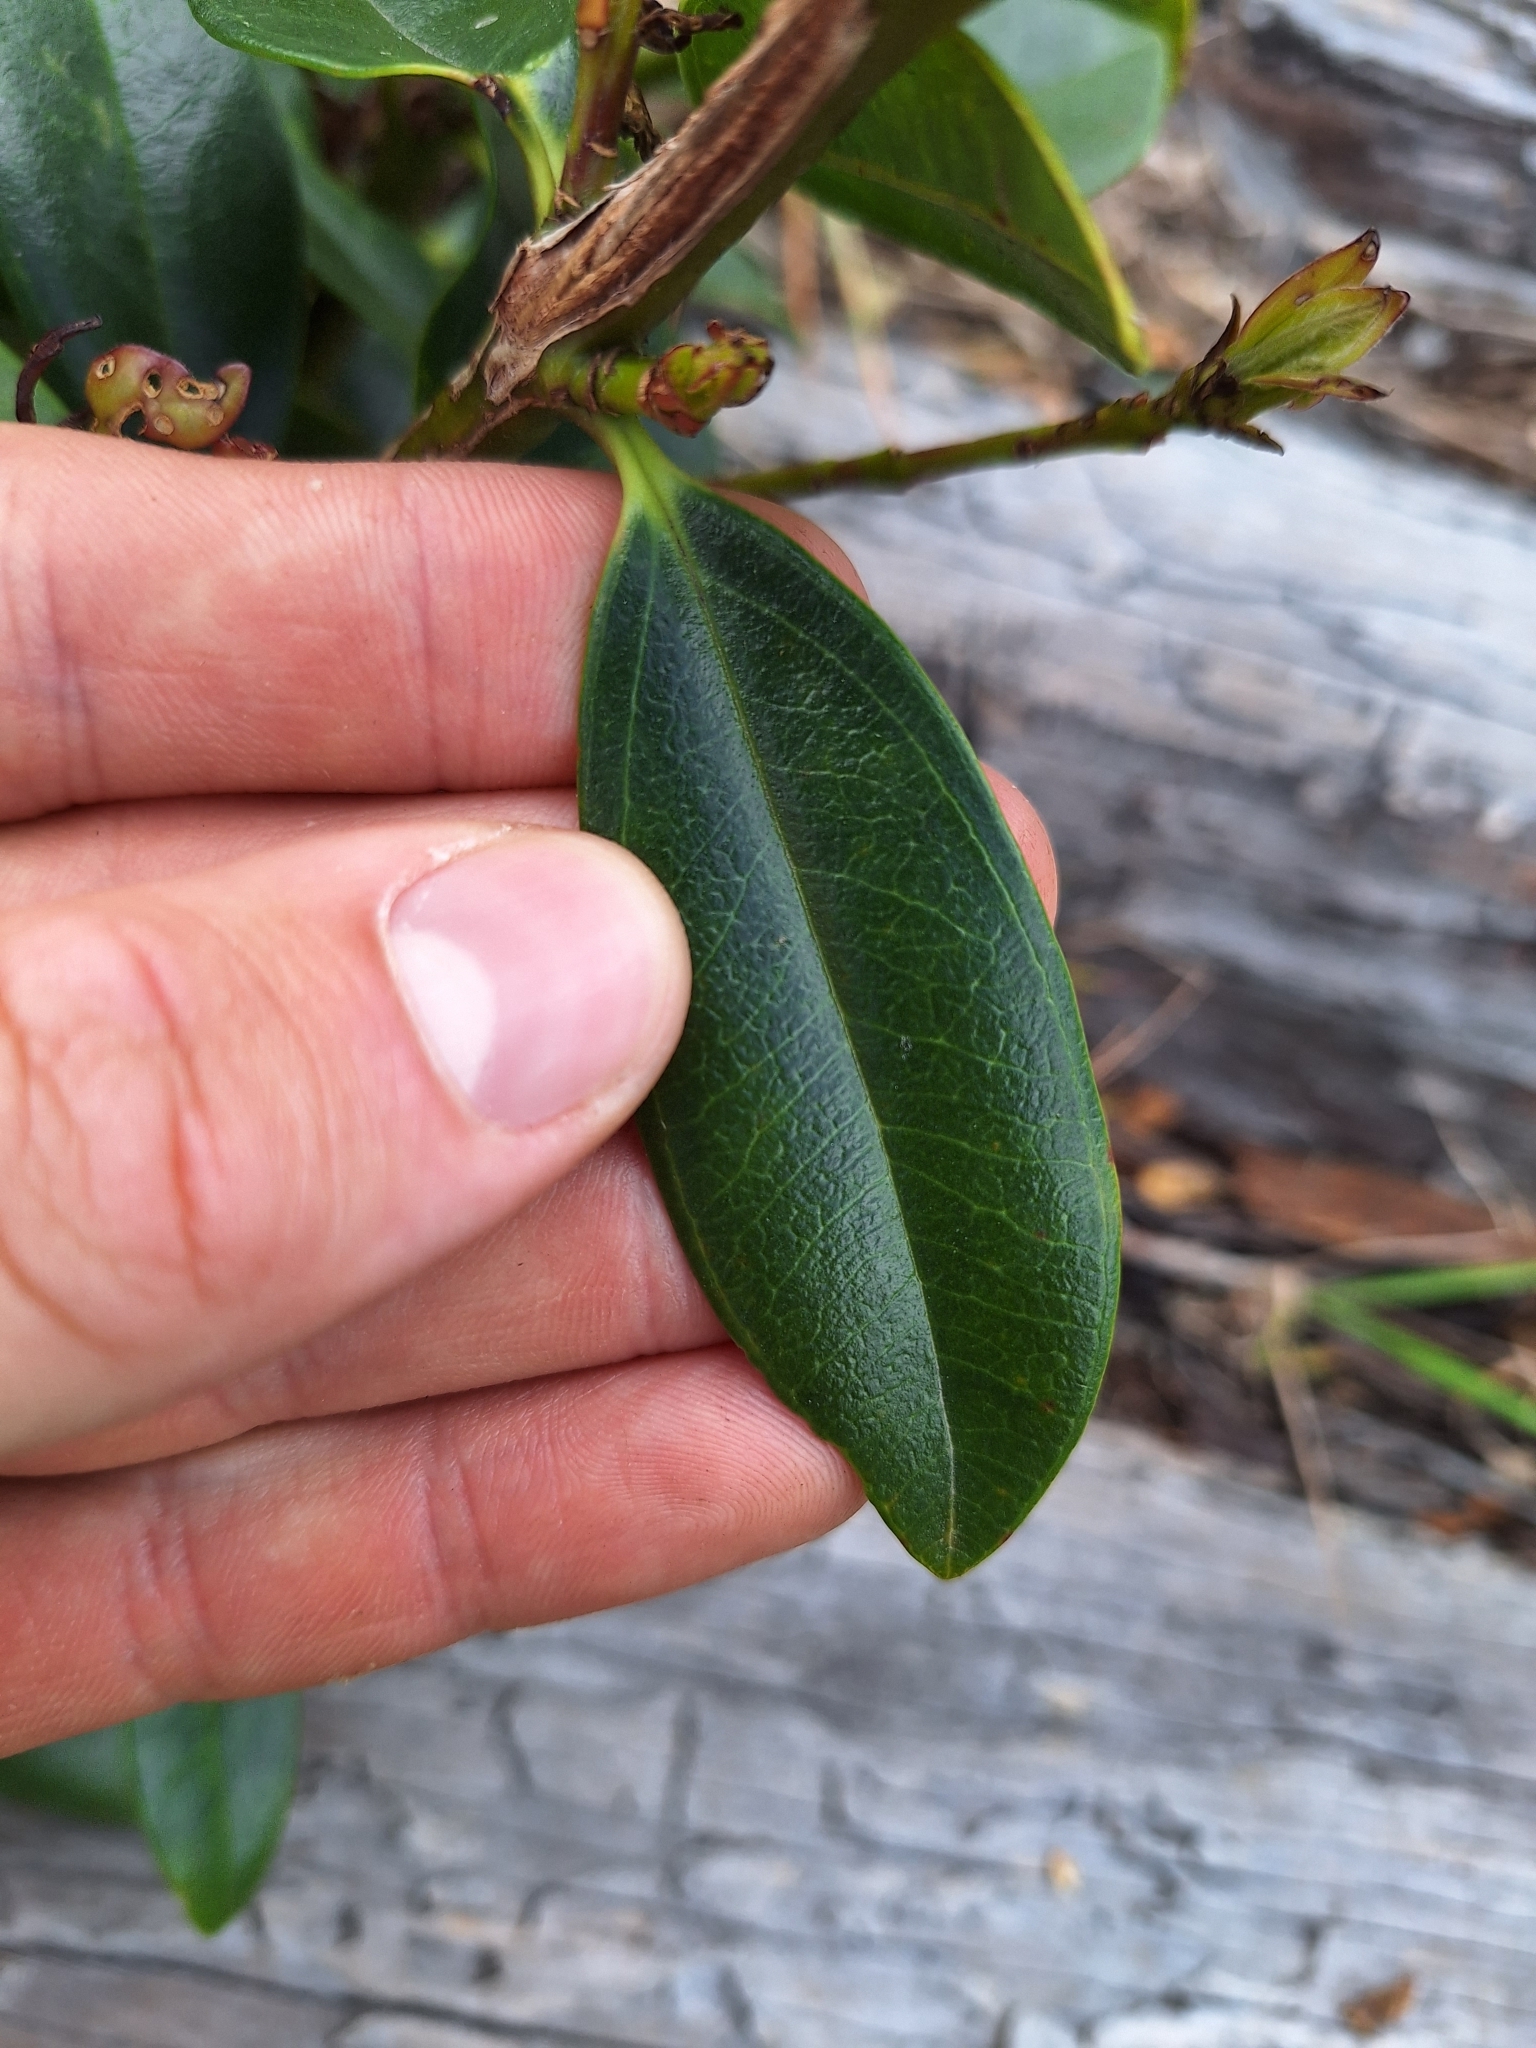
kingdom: Plantae
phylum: Tracheophyta
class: Magnoliopsida
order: Myrtales
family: Myrtaceae
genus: Metrosideros
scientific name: Metrosideros excelsa
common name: New zealand christmastree
